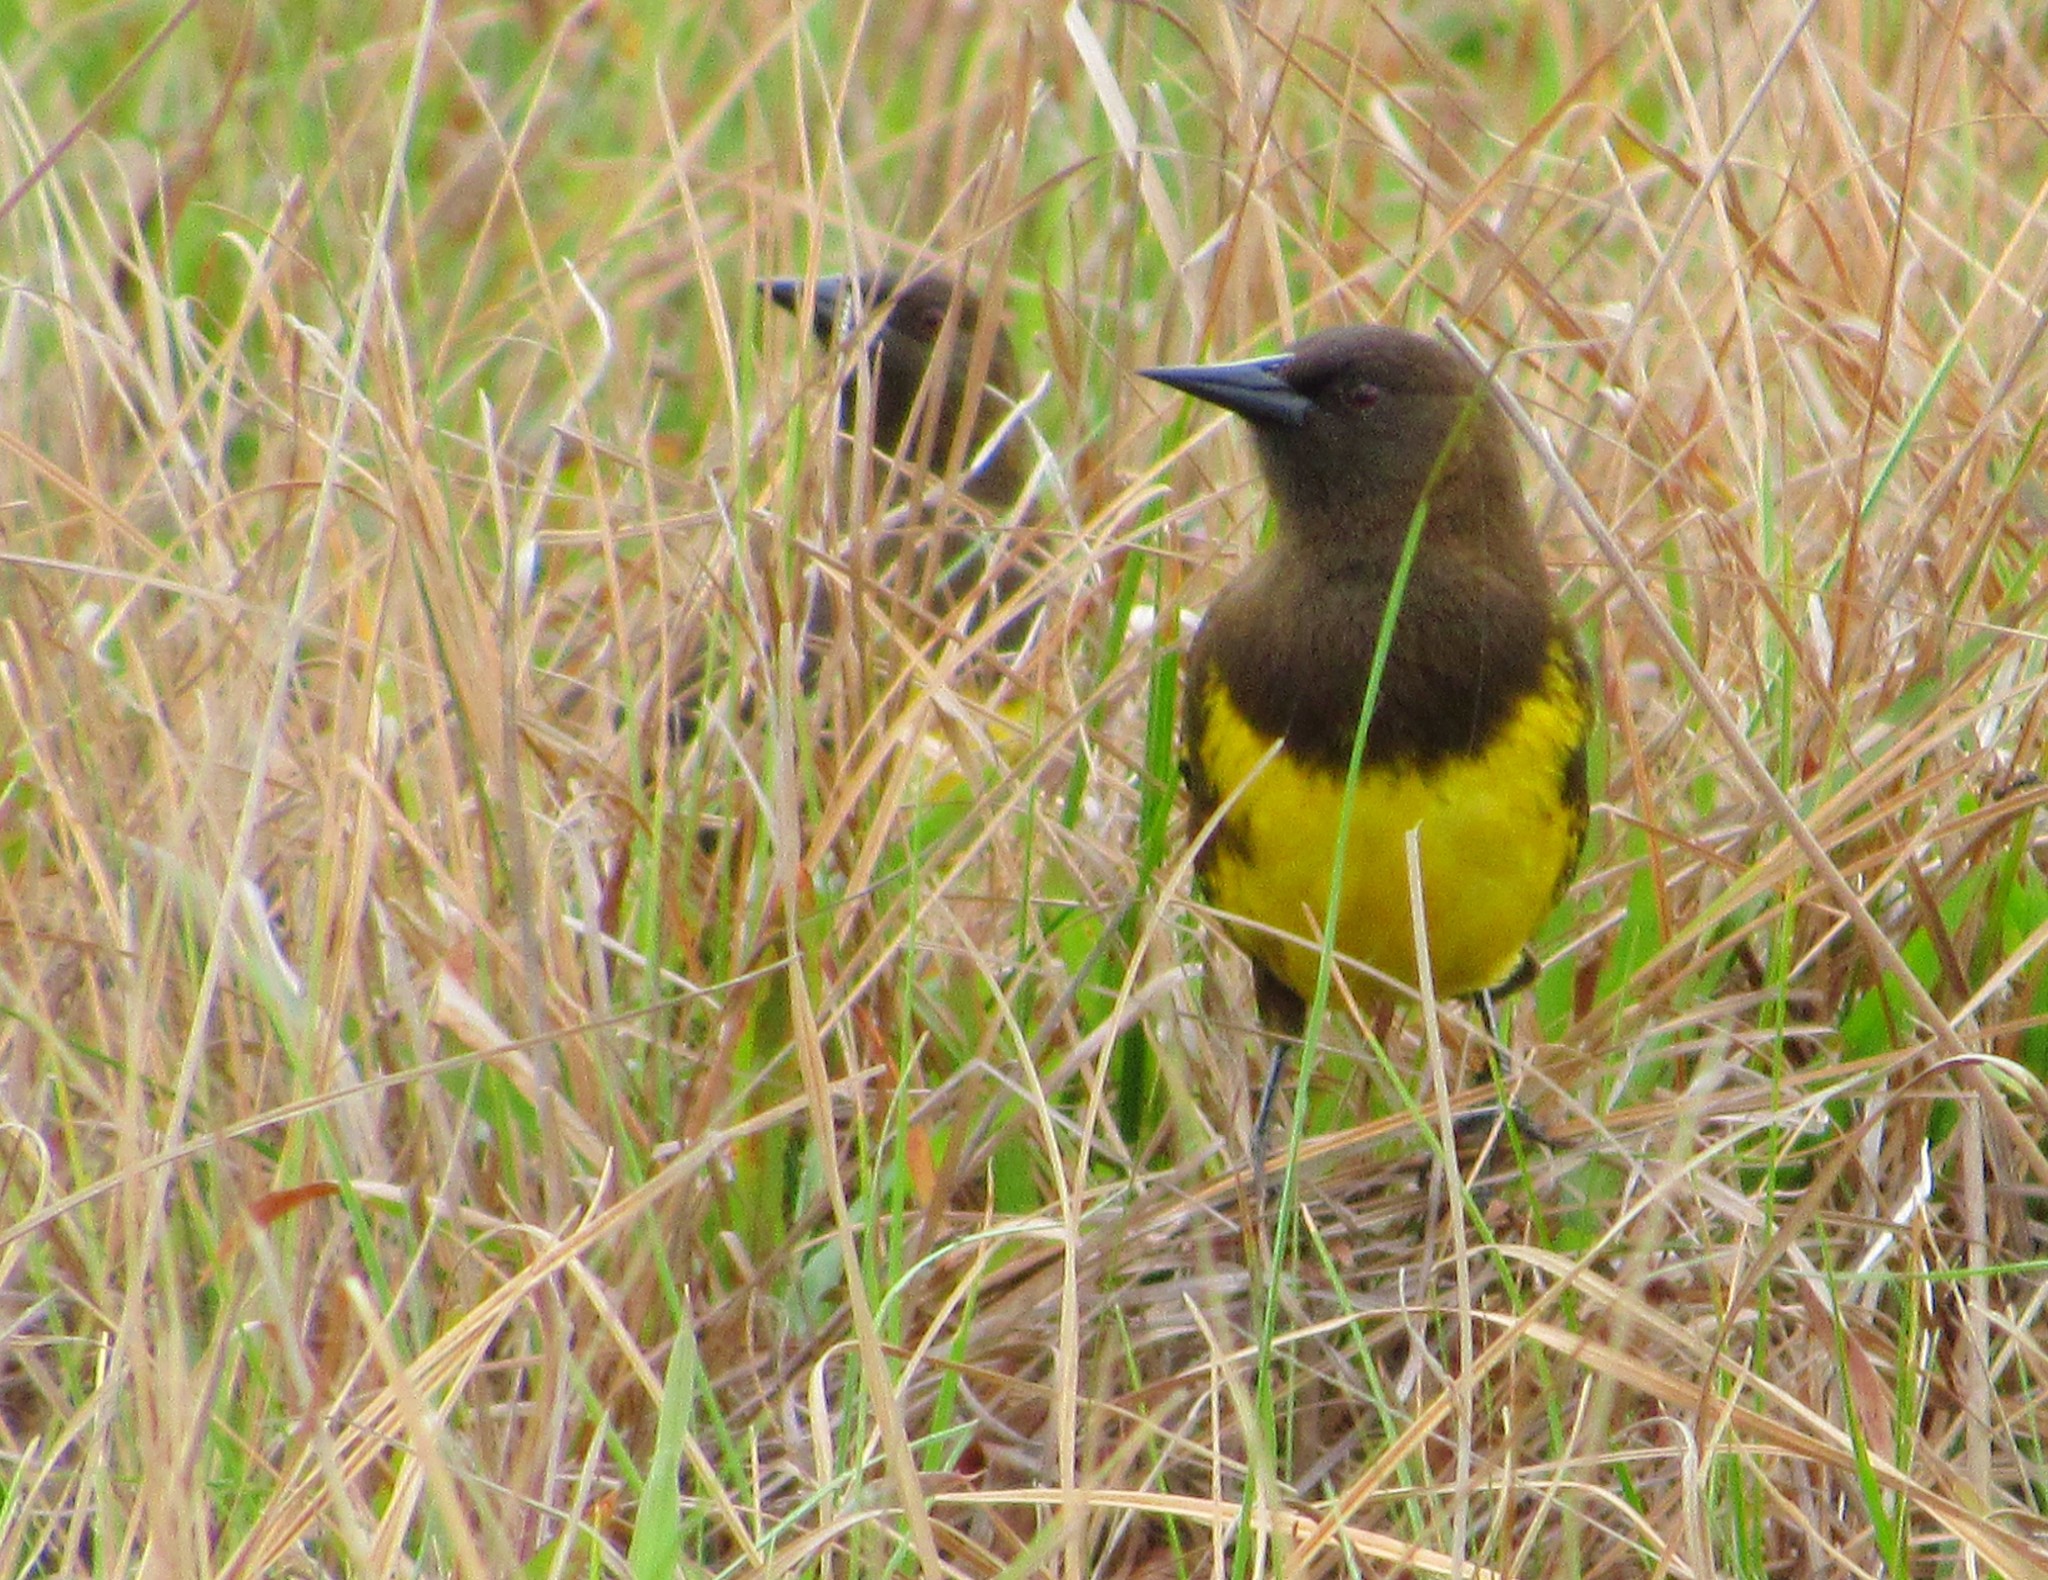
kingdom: Animalia
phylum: Chordata
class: Aves
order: Passeriformes
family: Icteridae
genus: Pseudoleistes
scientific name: Pseudoleistes virescens
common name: Brown-and-yellow marshbird
